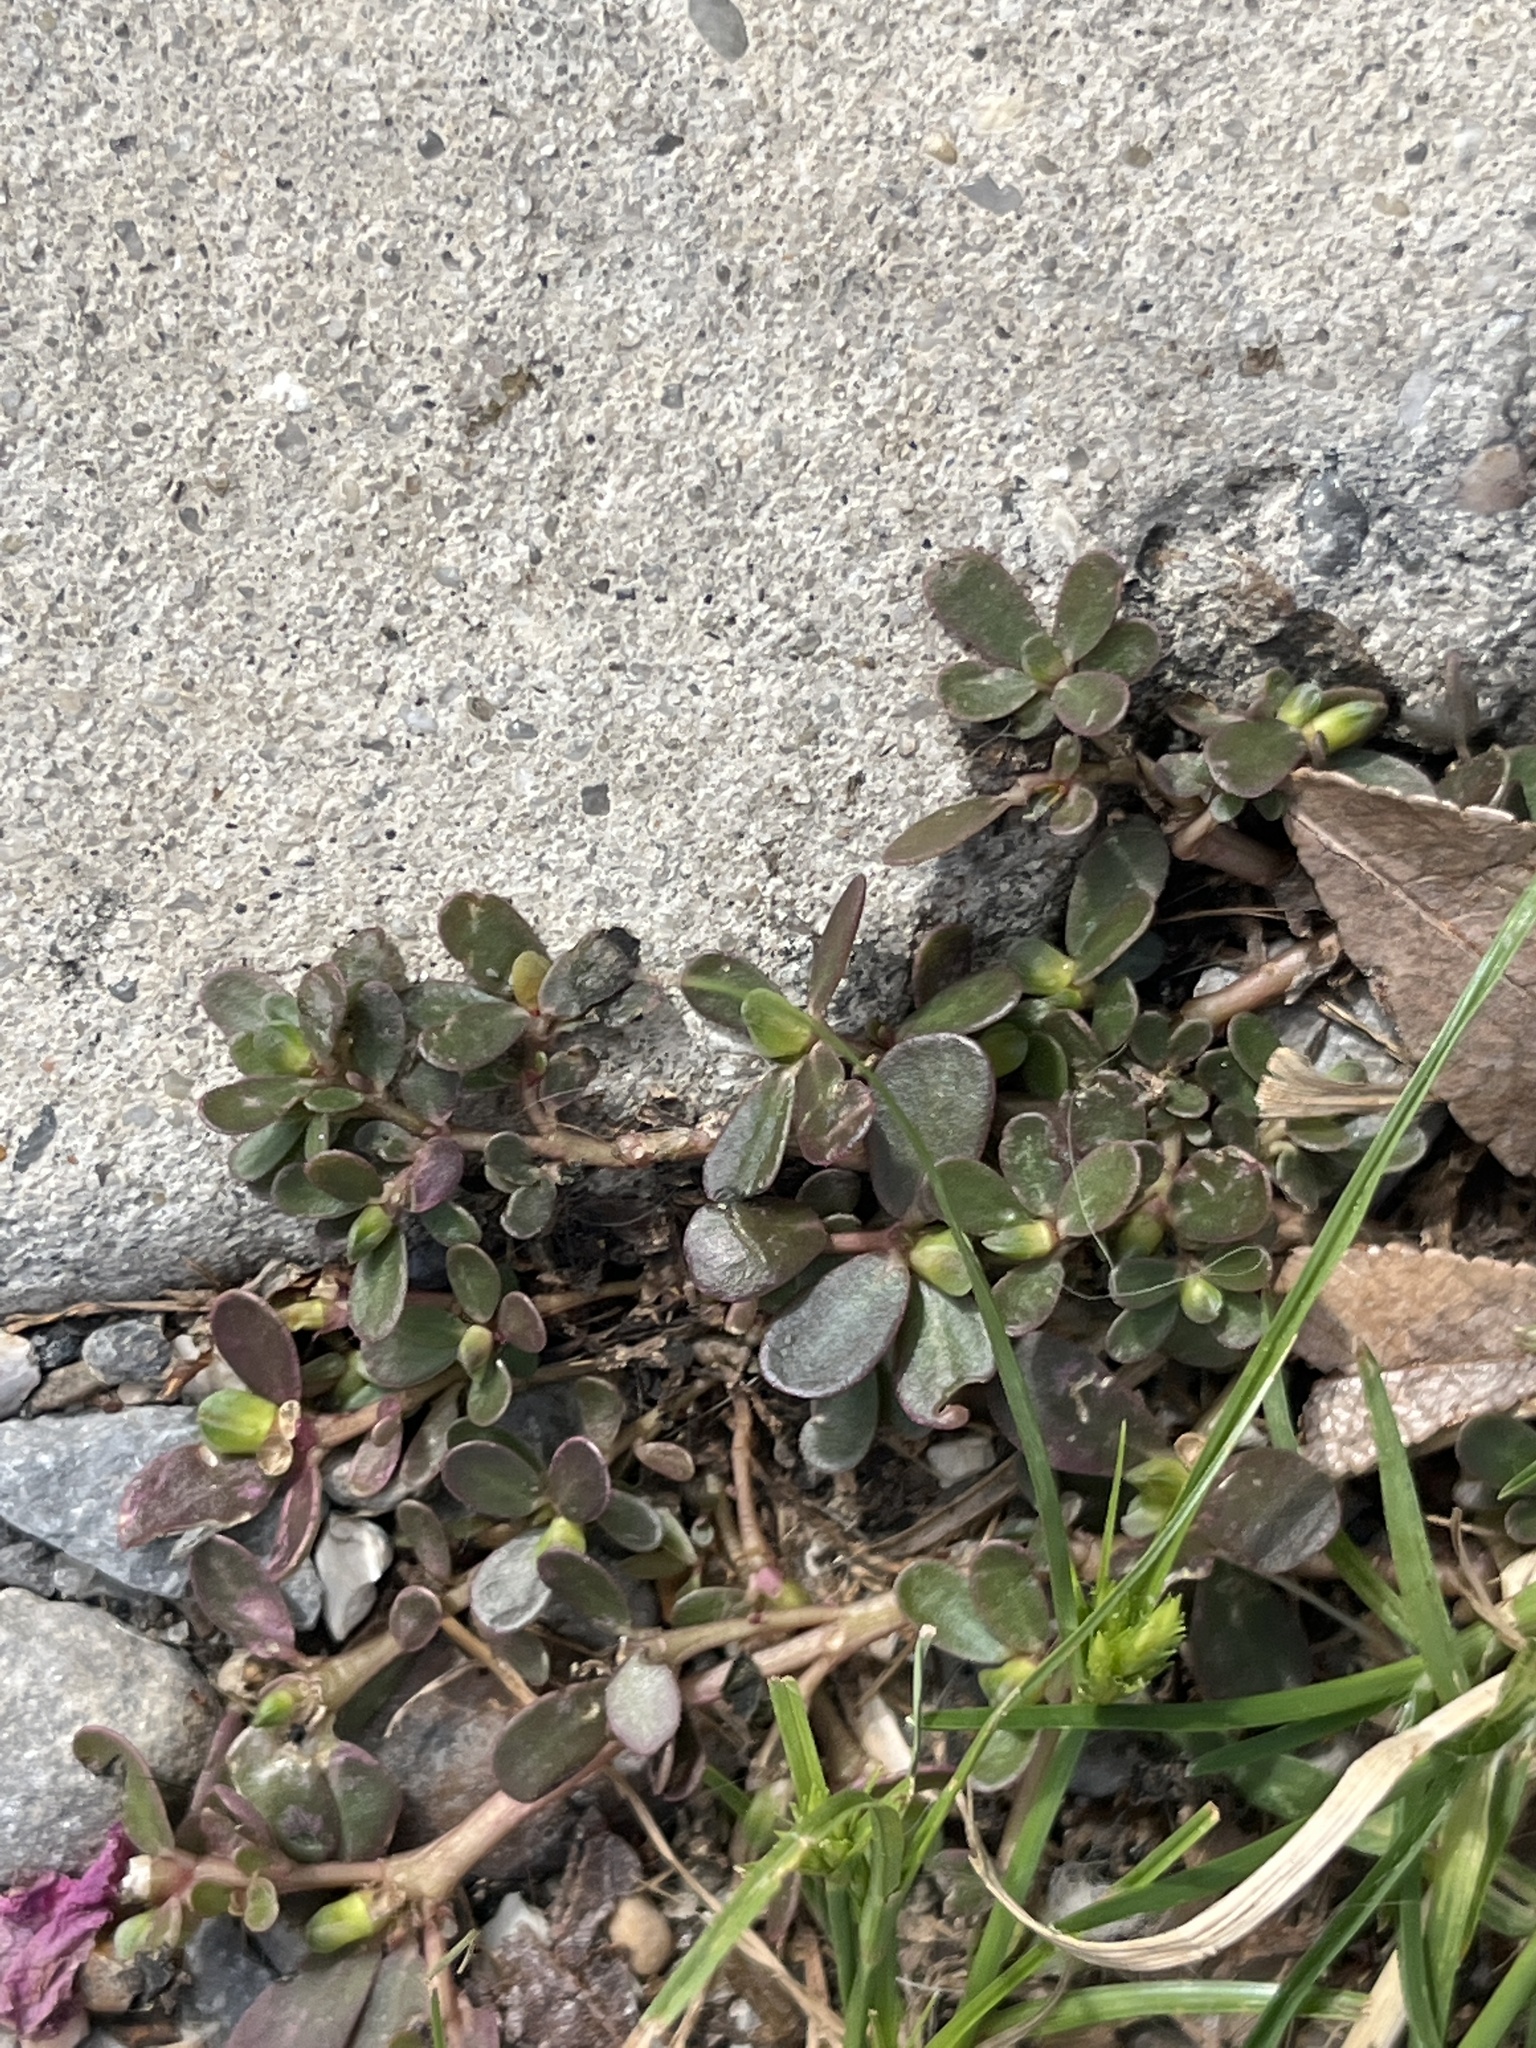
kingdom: Plantae
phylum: Tracheophyta
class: Magnoliopsida
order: Caryophyllales
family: Portulacaceae
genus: Portulaca
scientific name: Portulaca oleracea
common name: Common purslane
